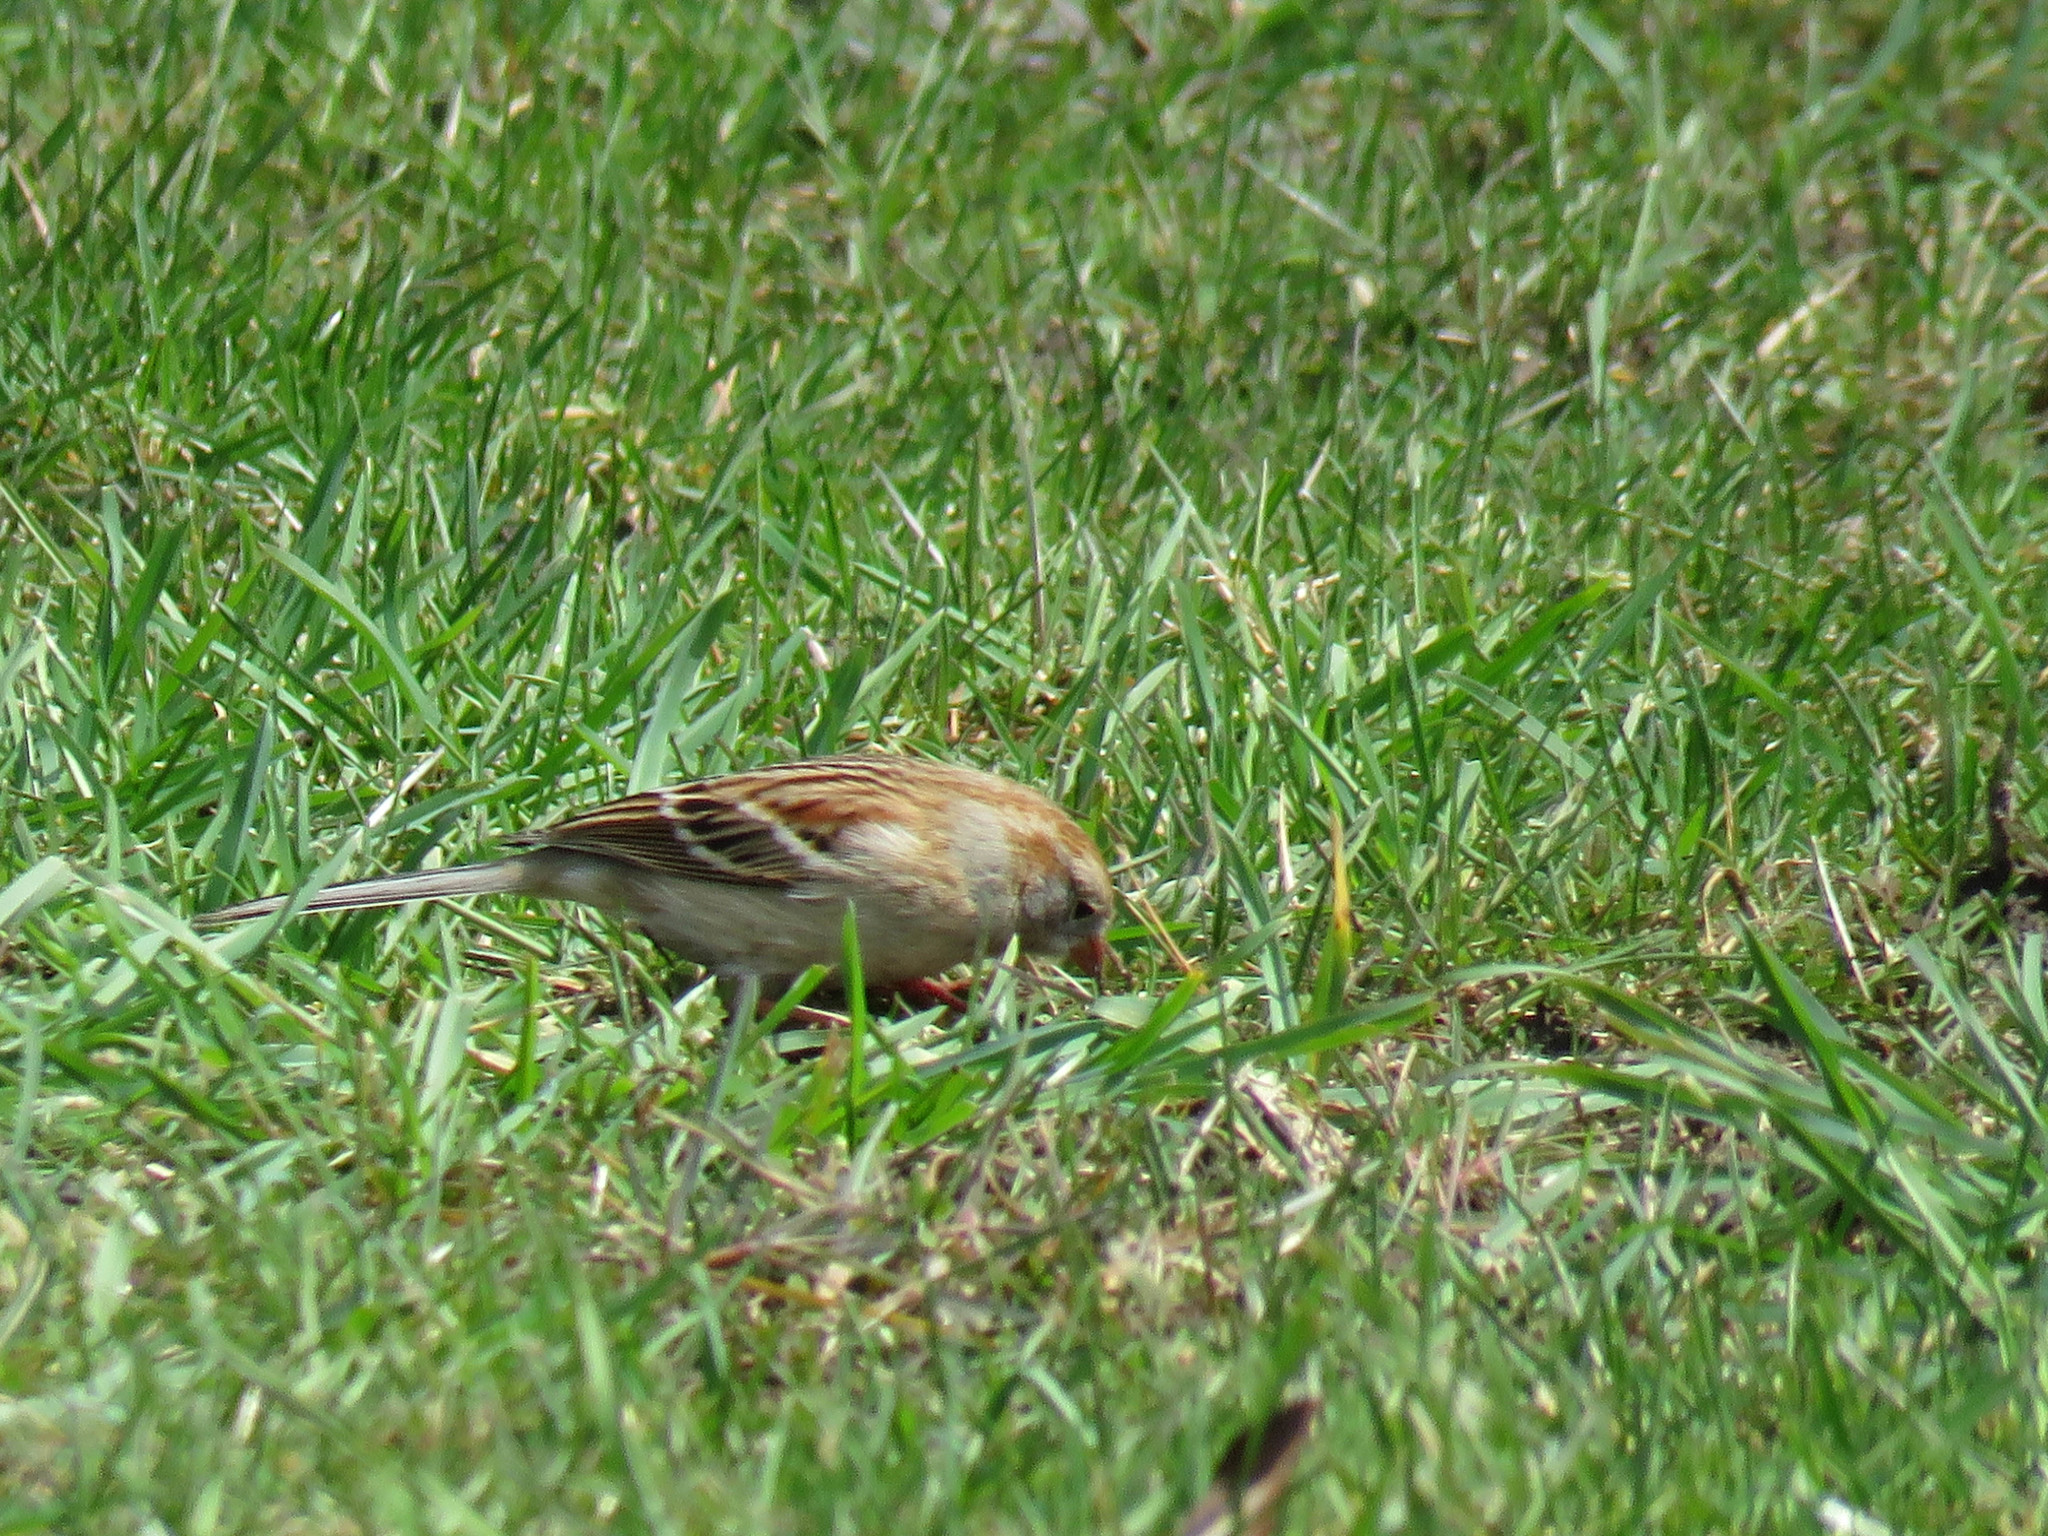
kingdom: Animalia
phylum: Chordata
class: Aves
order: Passeriformes
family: Passerellidae
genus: Spizella
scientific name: Spizella pusilla
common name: Field sparrow
